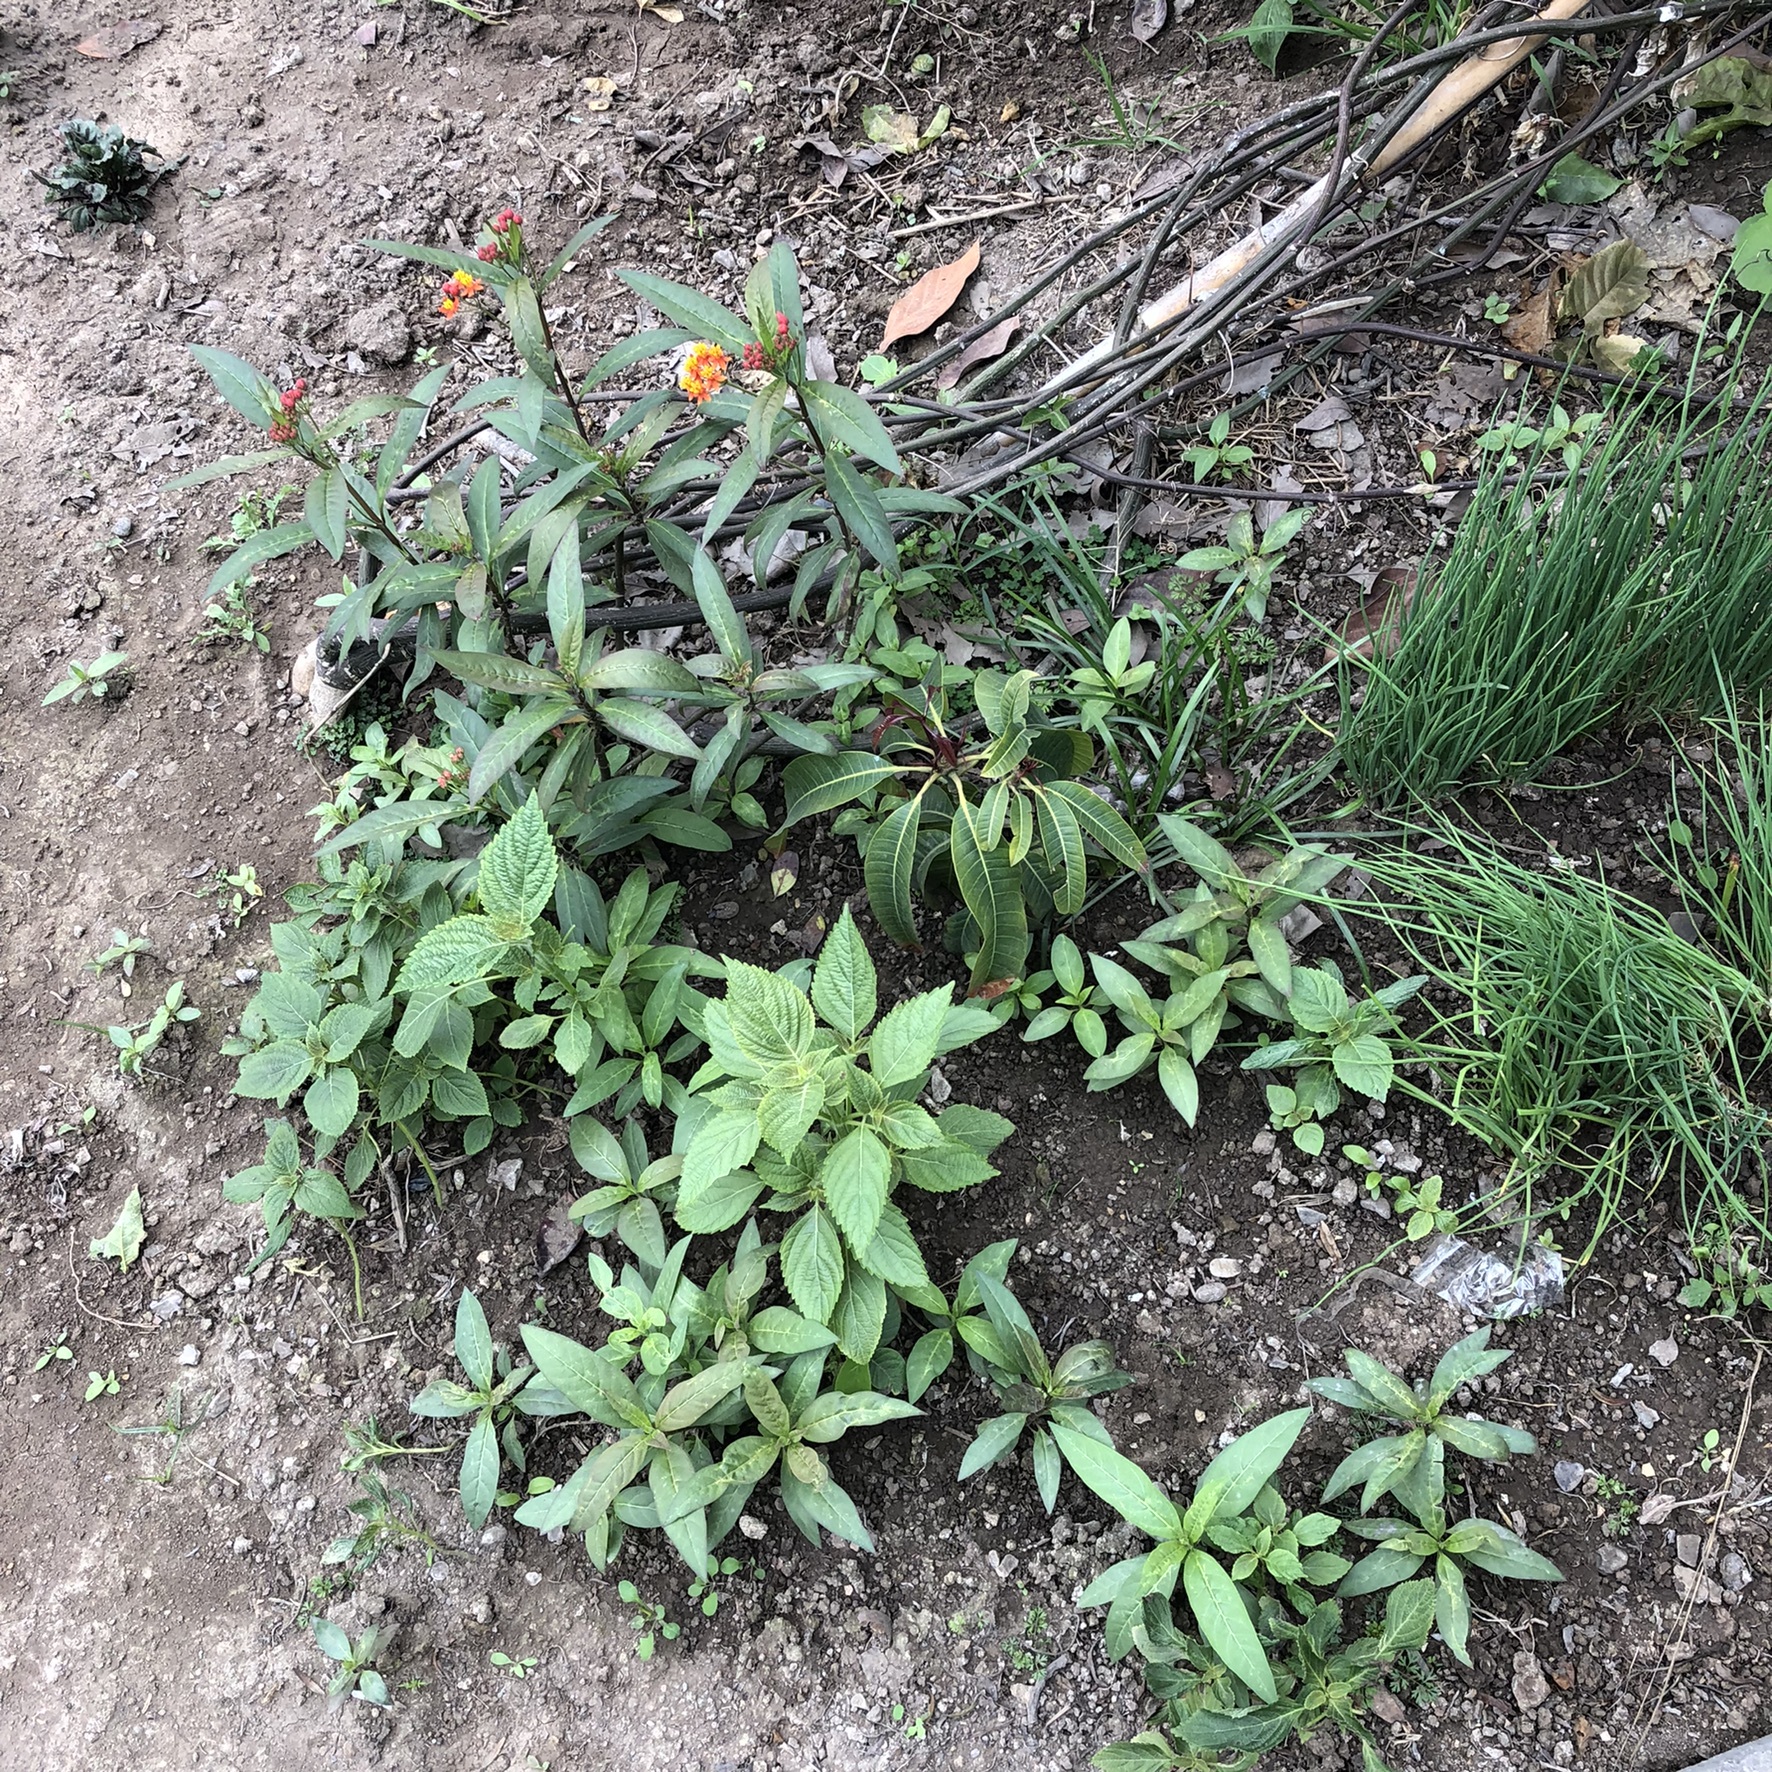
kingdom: Plantae
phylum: Tracheophyta
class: Magnoliopsida
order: Gentianales
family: Apocynaceae
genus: Asclepias
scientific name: Asclepias curassavica
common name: Bloodflower
